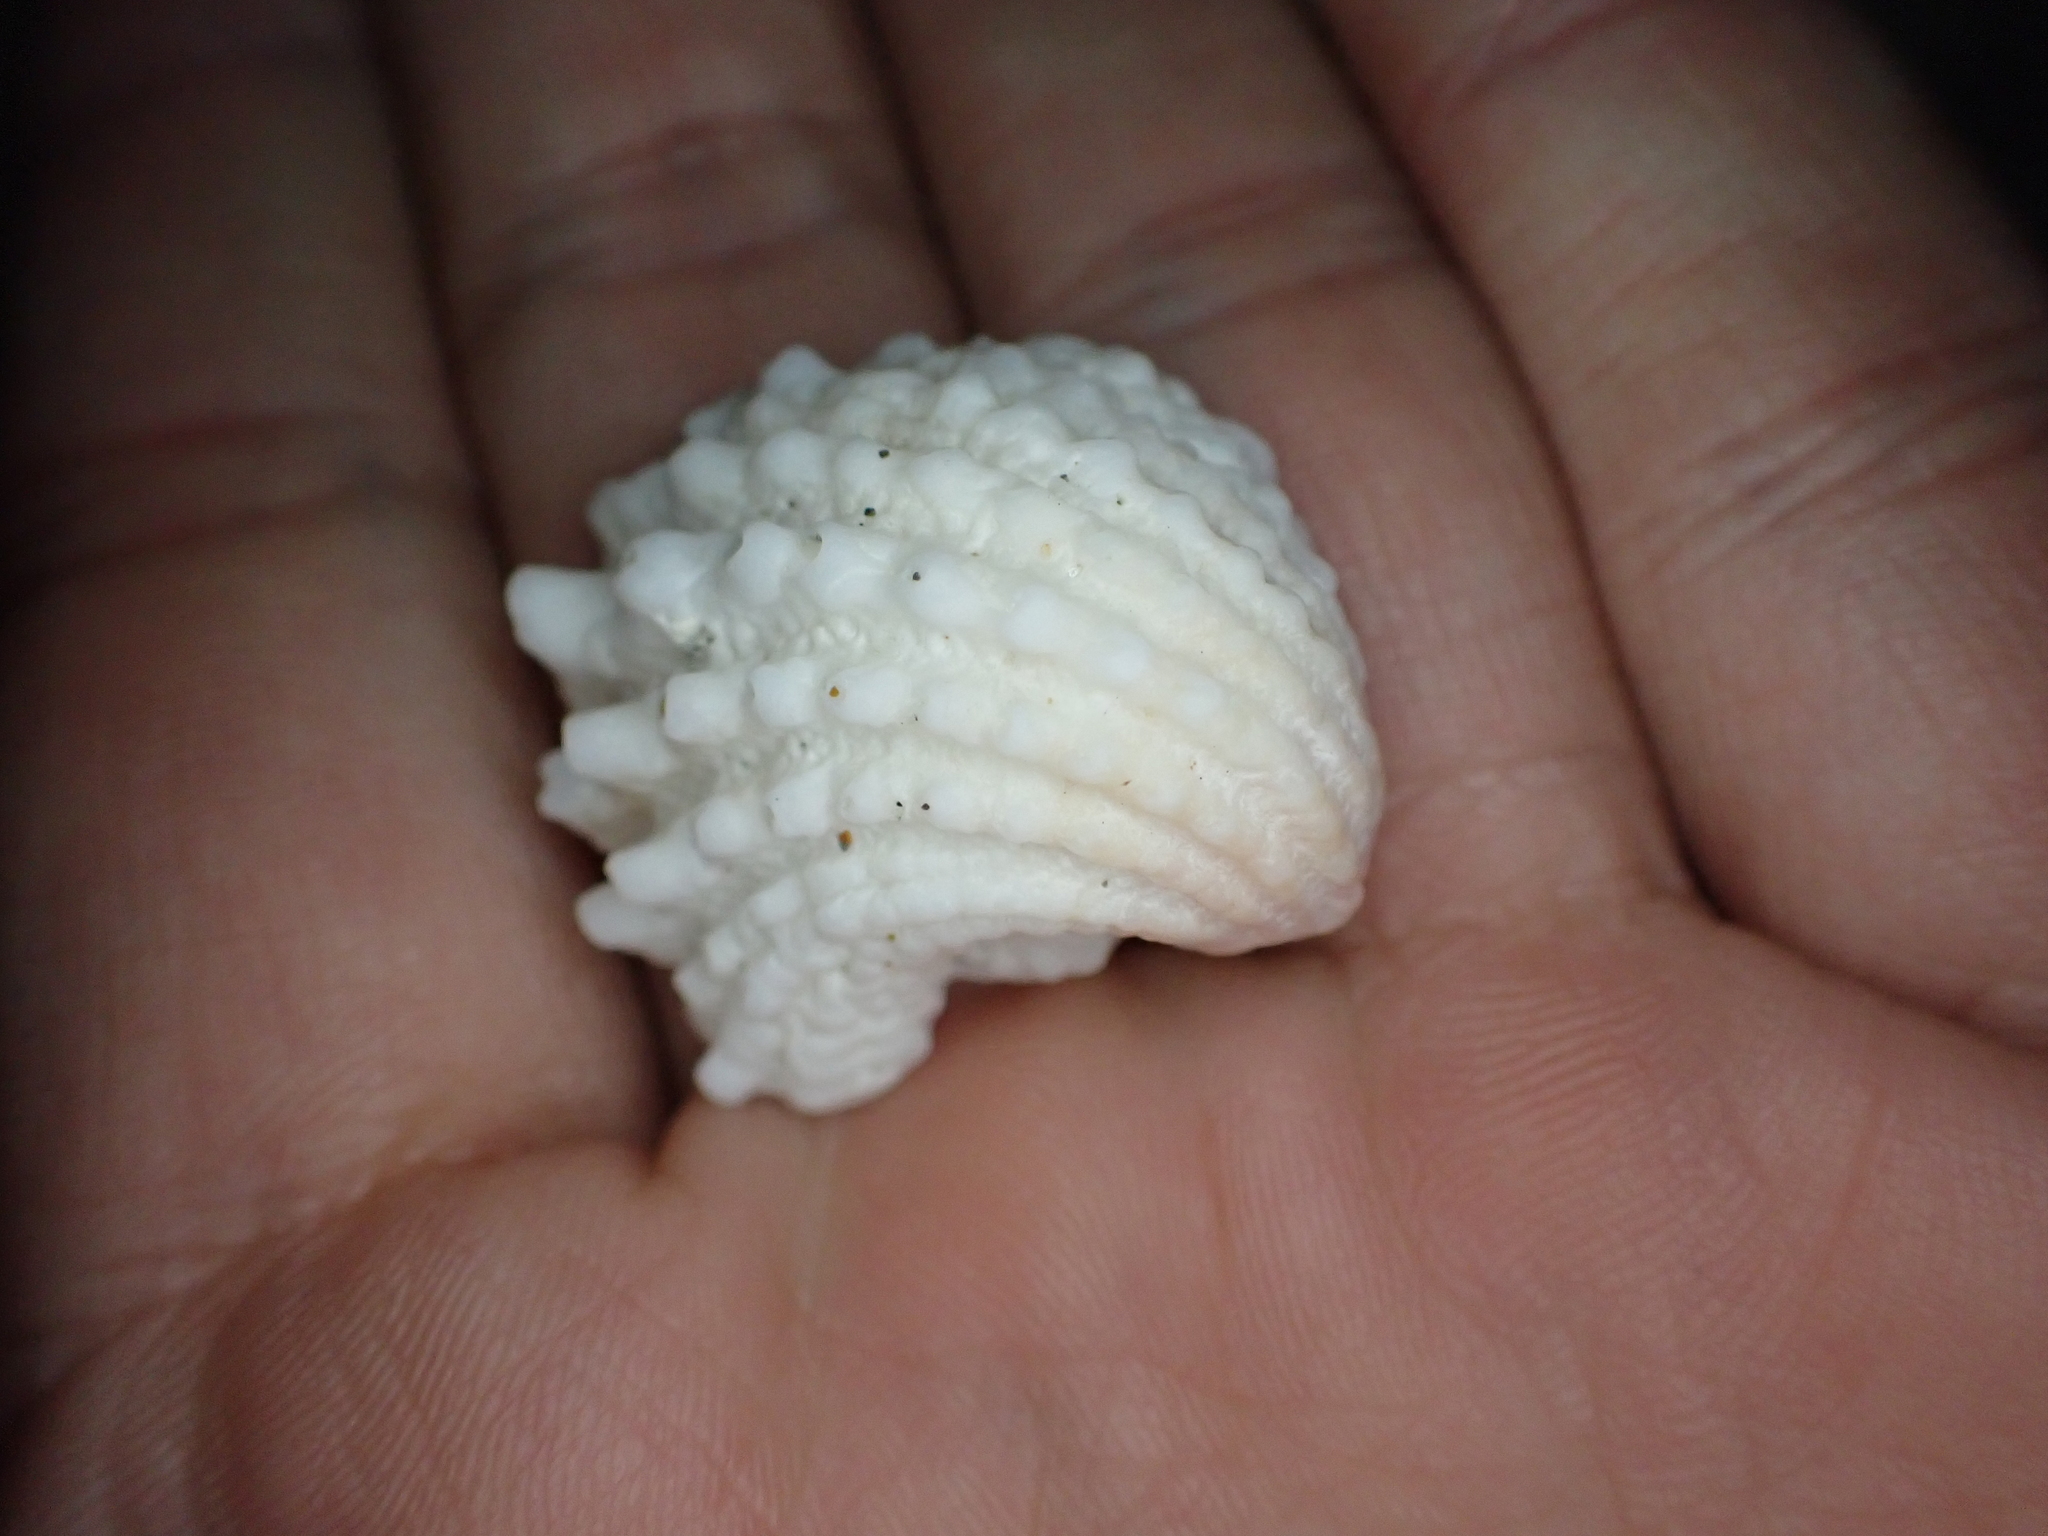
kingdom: Animalia
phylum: Mollusca
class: Bivalvia
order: Venerida
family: Chamidae
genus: Arcinella
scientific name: Arcinella cornuta
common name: Florida spiny jewel box
